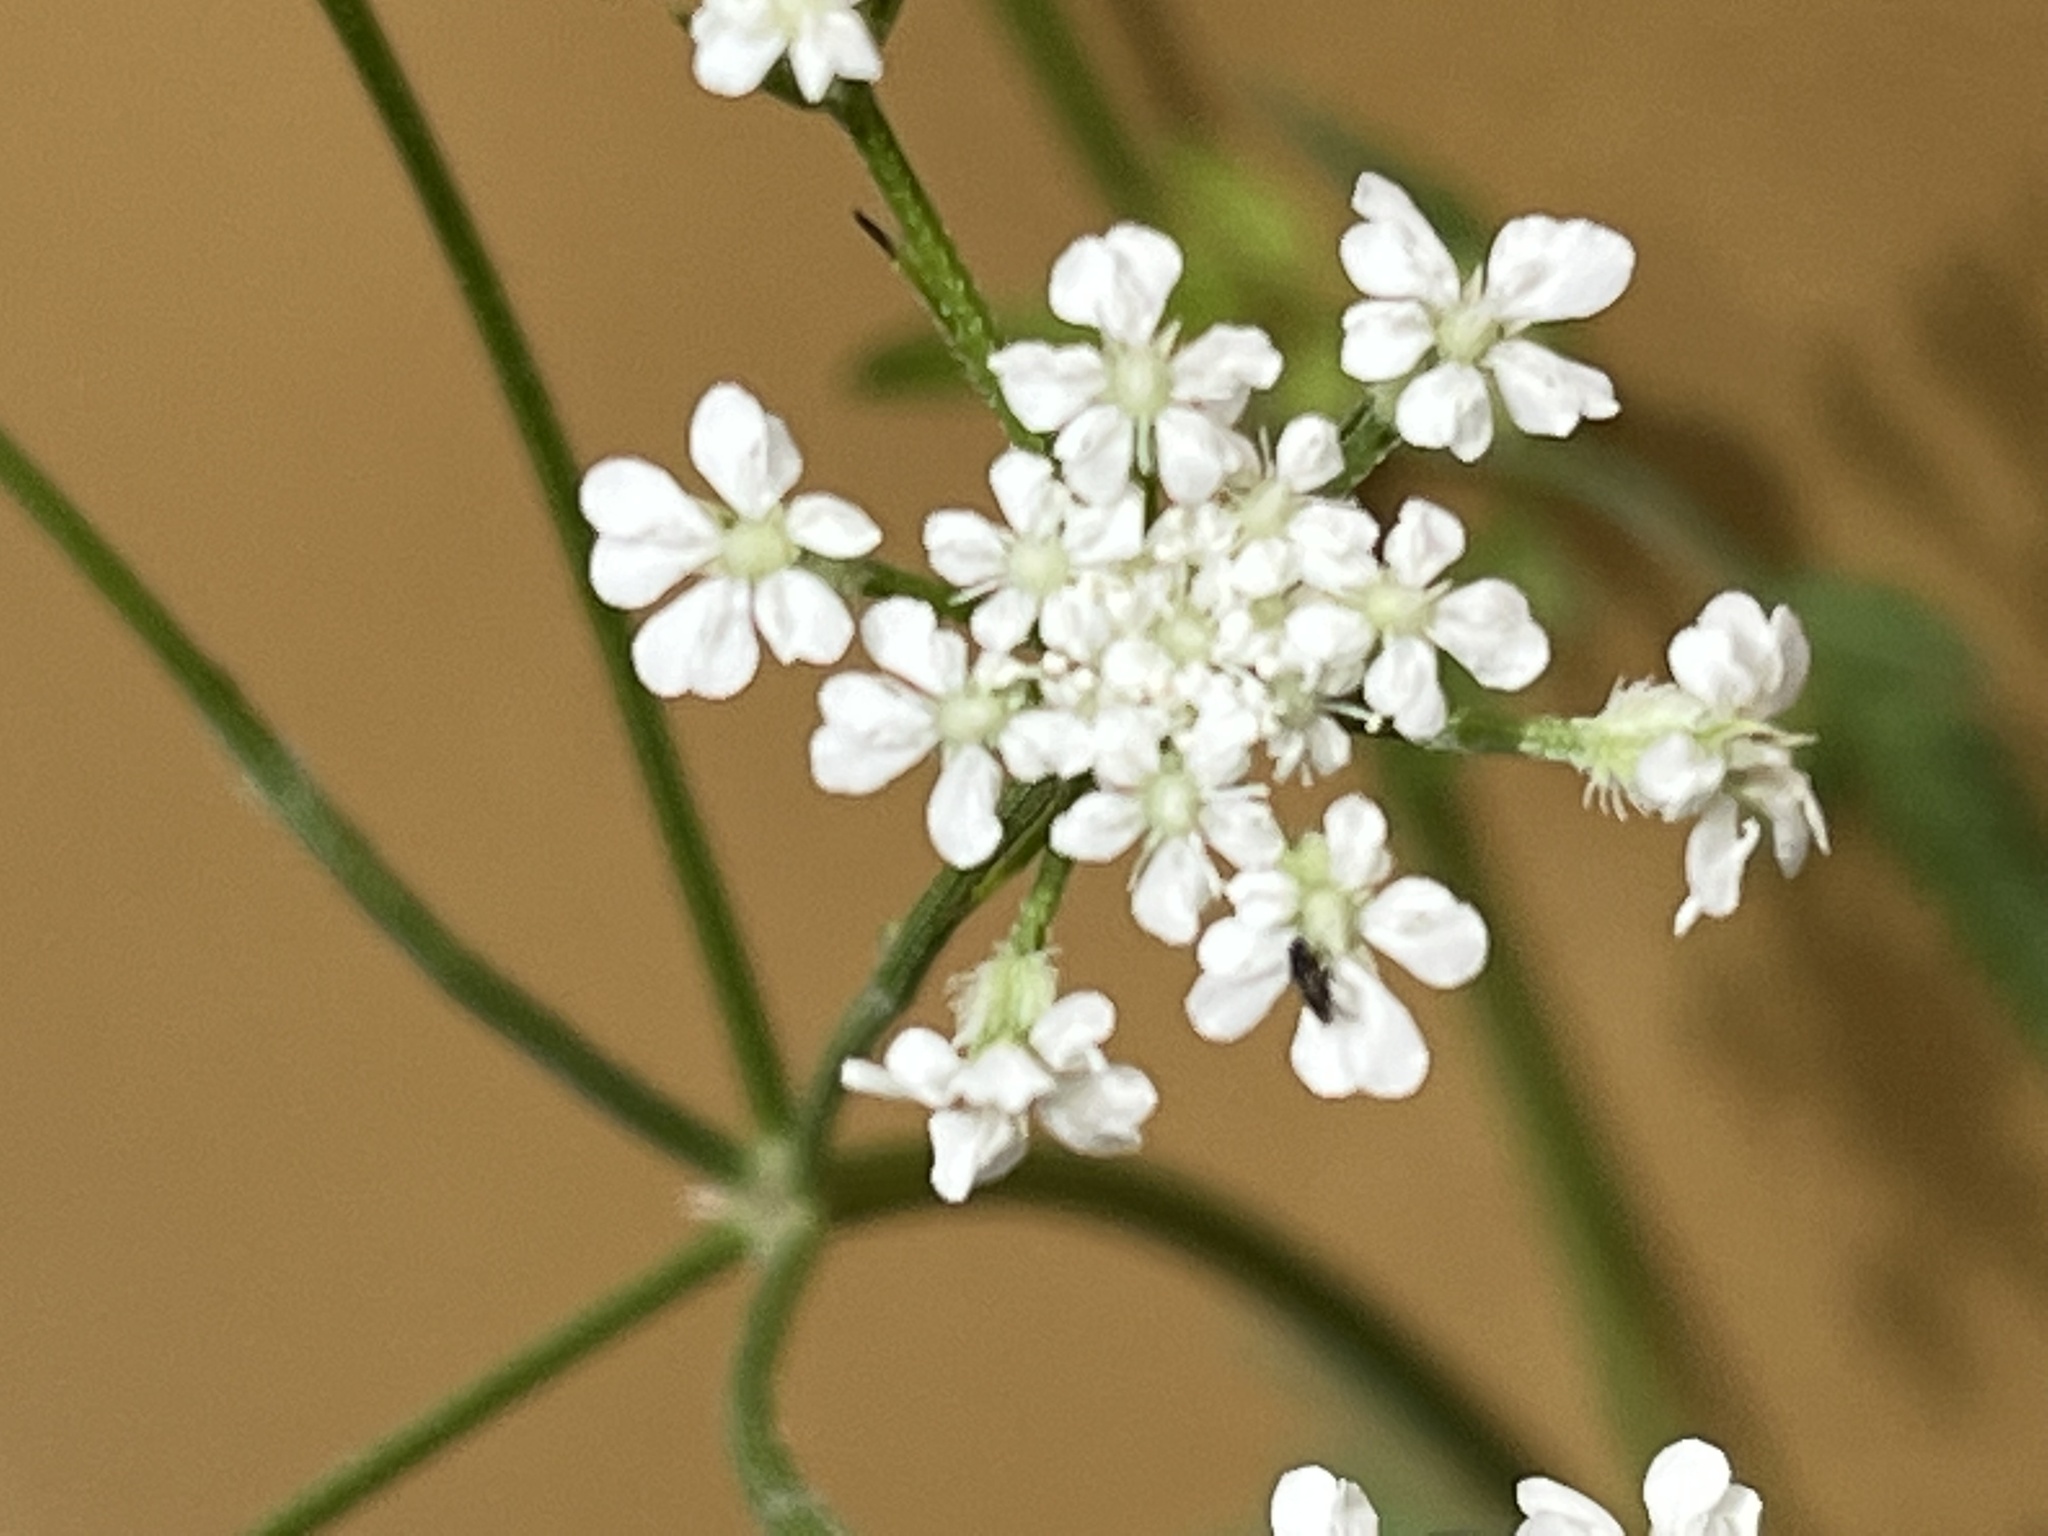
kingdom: Plantae
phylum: Tracheophyta
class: Magnoliopsida
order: Apiales
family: Apiaceae
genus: Torilis
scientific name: Torilis arvensis
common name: Spreading hedge-parsley
